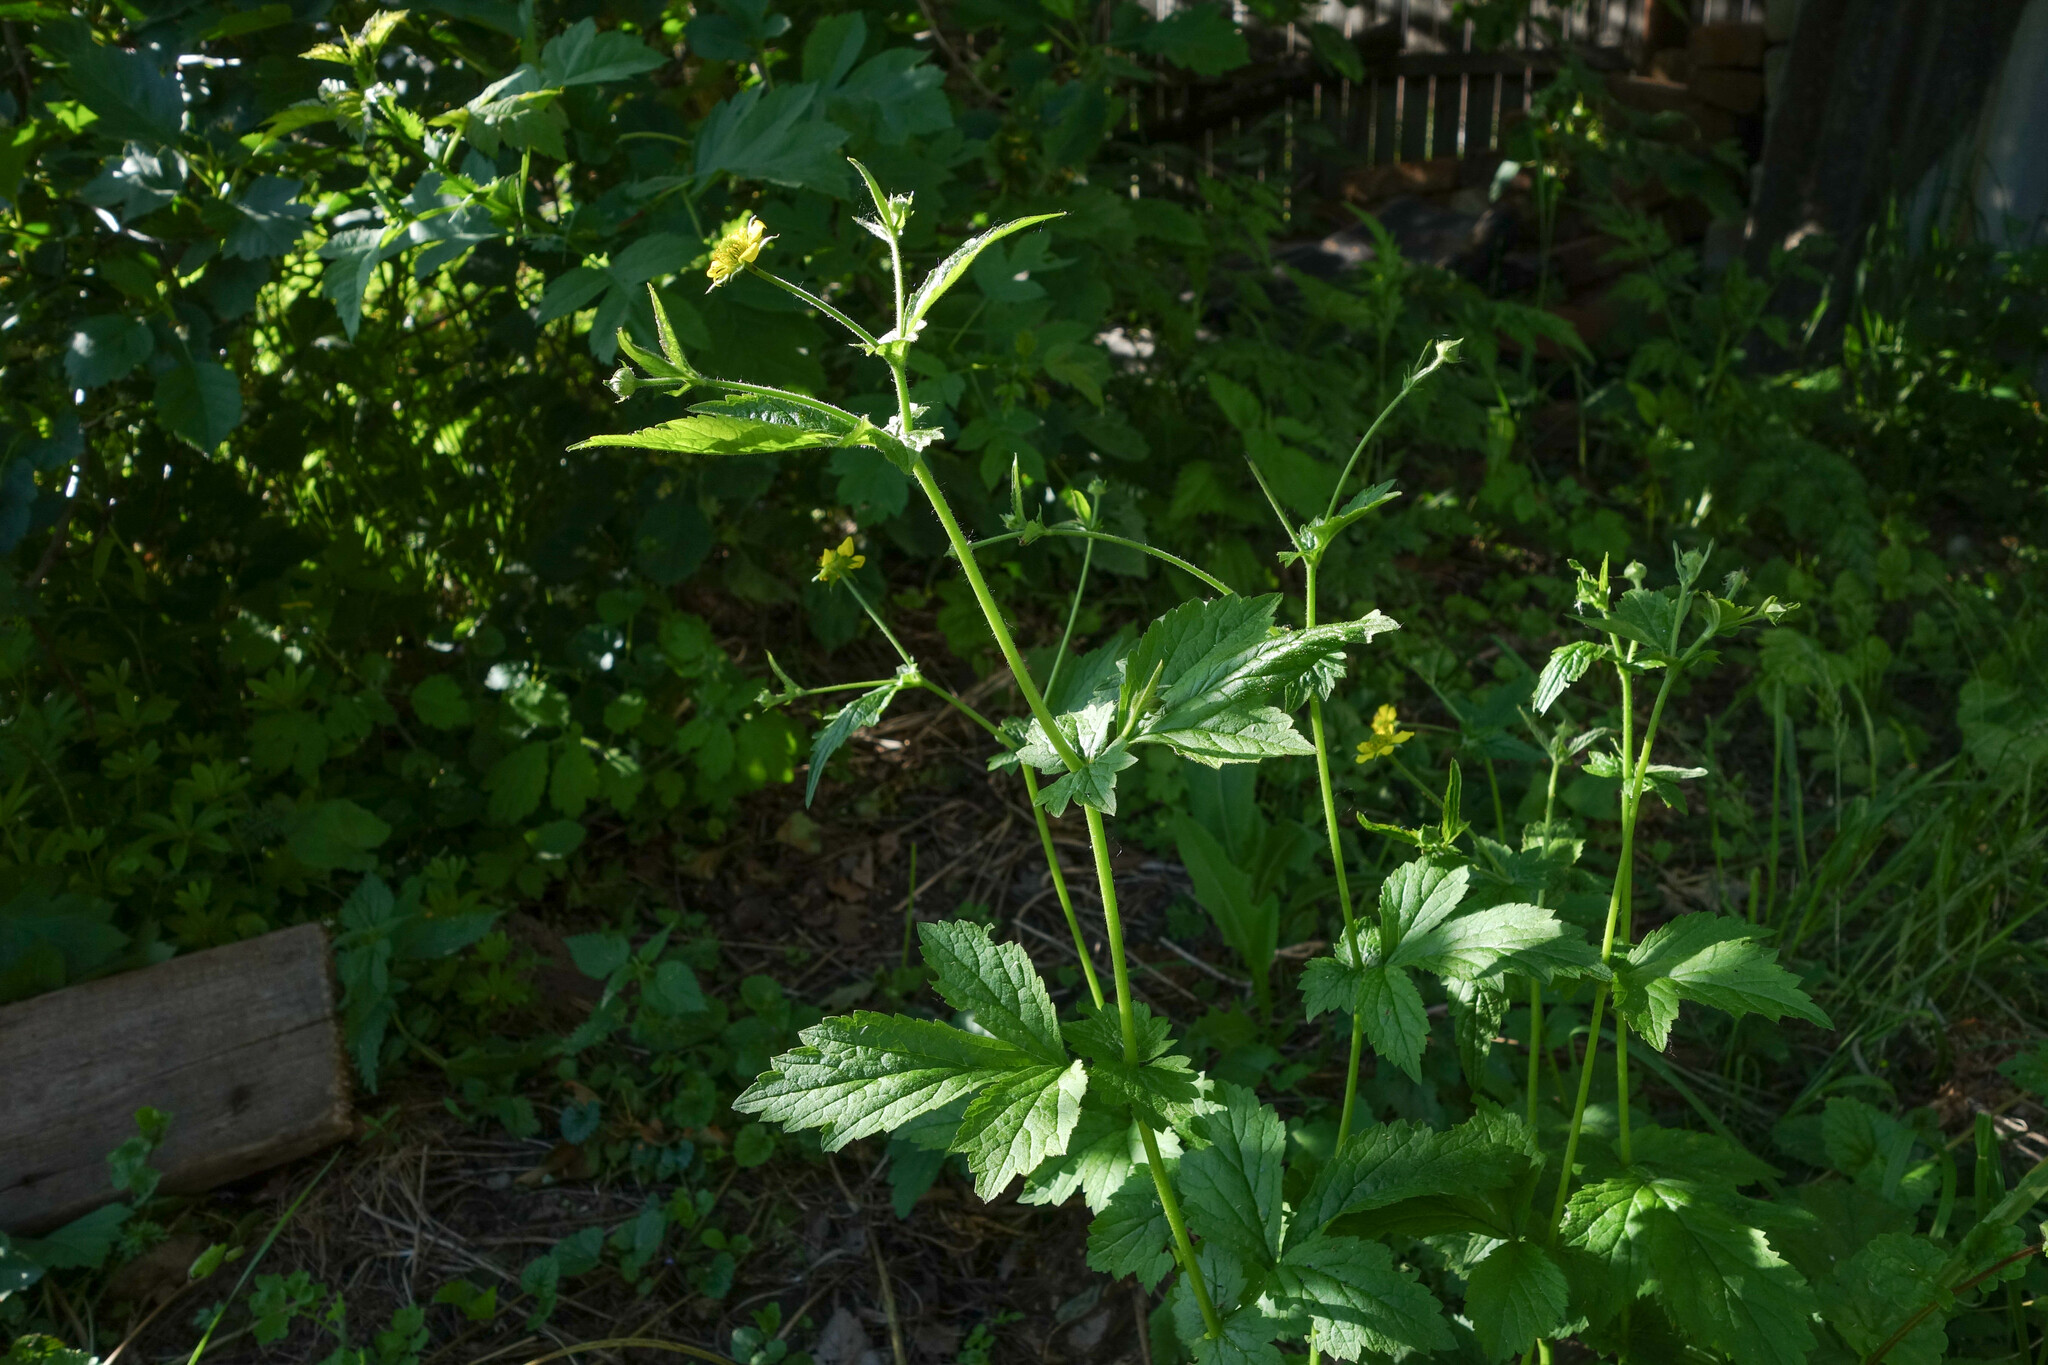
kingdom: Plantae
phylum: Tracheophyta
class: Magnoliopsida
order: Rosales
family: Rosaceae
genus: Geum
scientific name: Geum urbanum
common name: Wood avens
